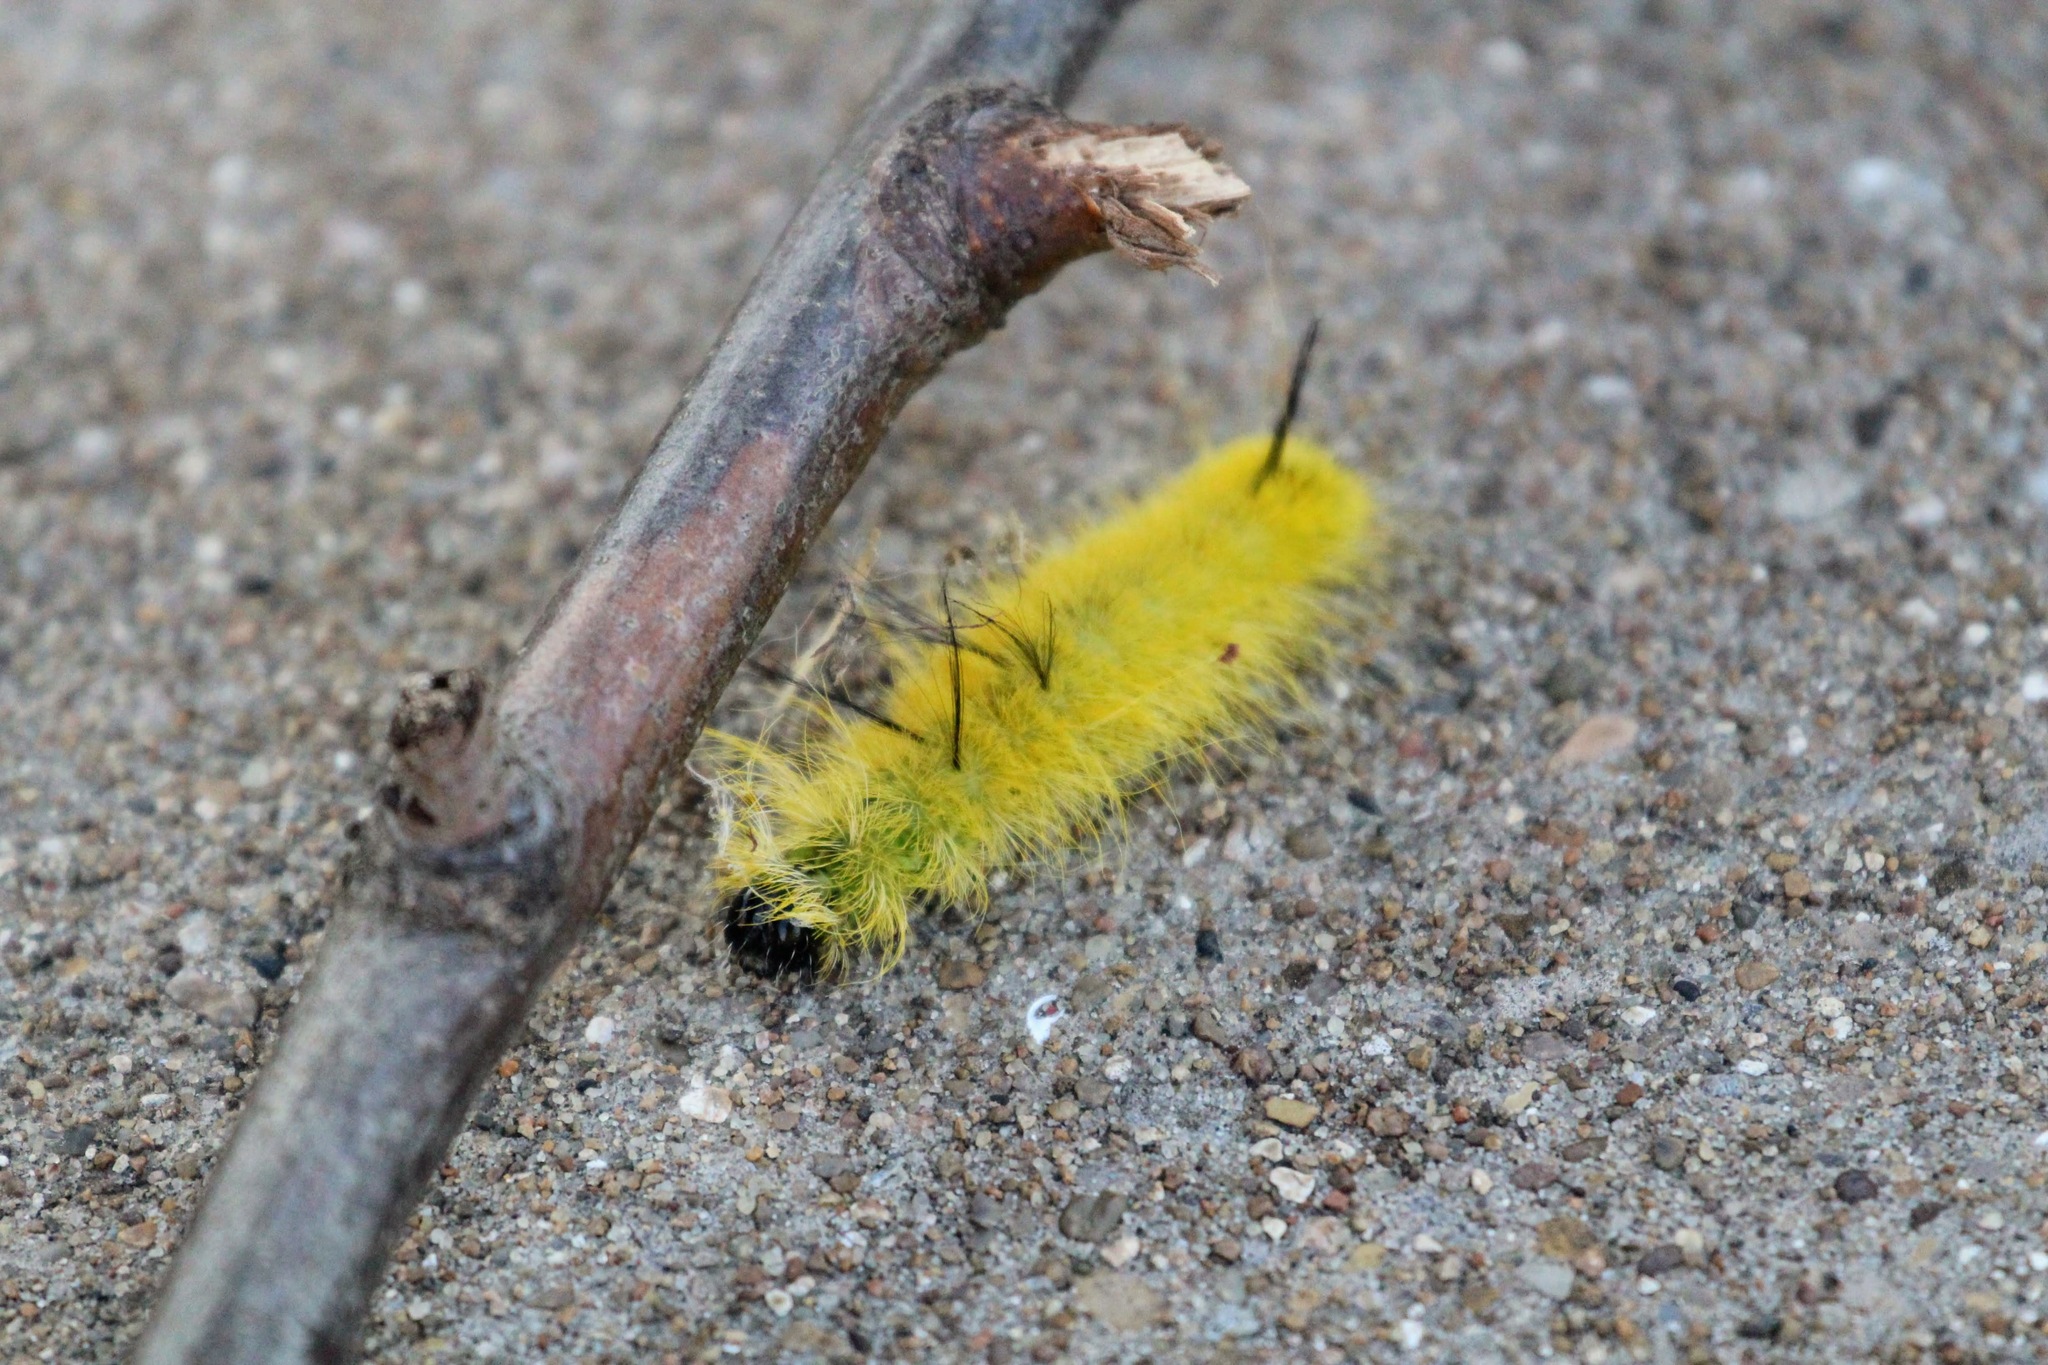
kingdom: Animalia
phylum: Arthropoda
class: Insecta
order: Lepidoptera
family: Noctuidae
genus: Acronicta
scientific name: Acronicta americana
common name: American dagger
